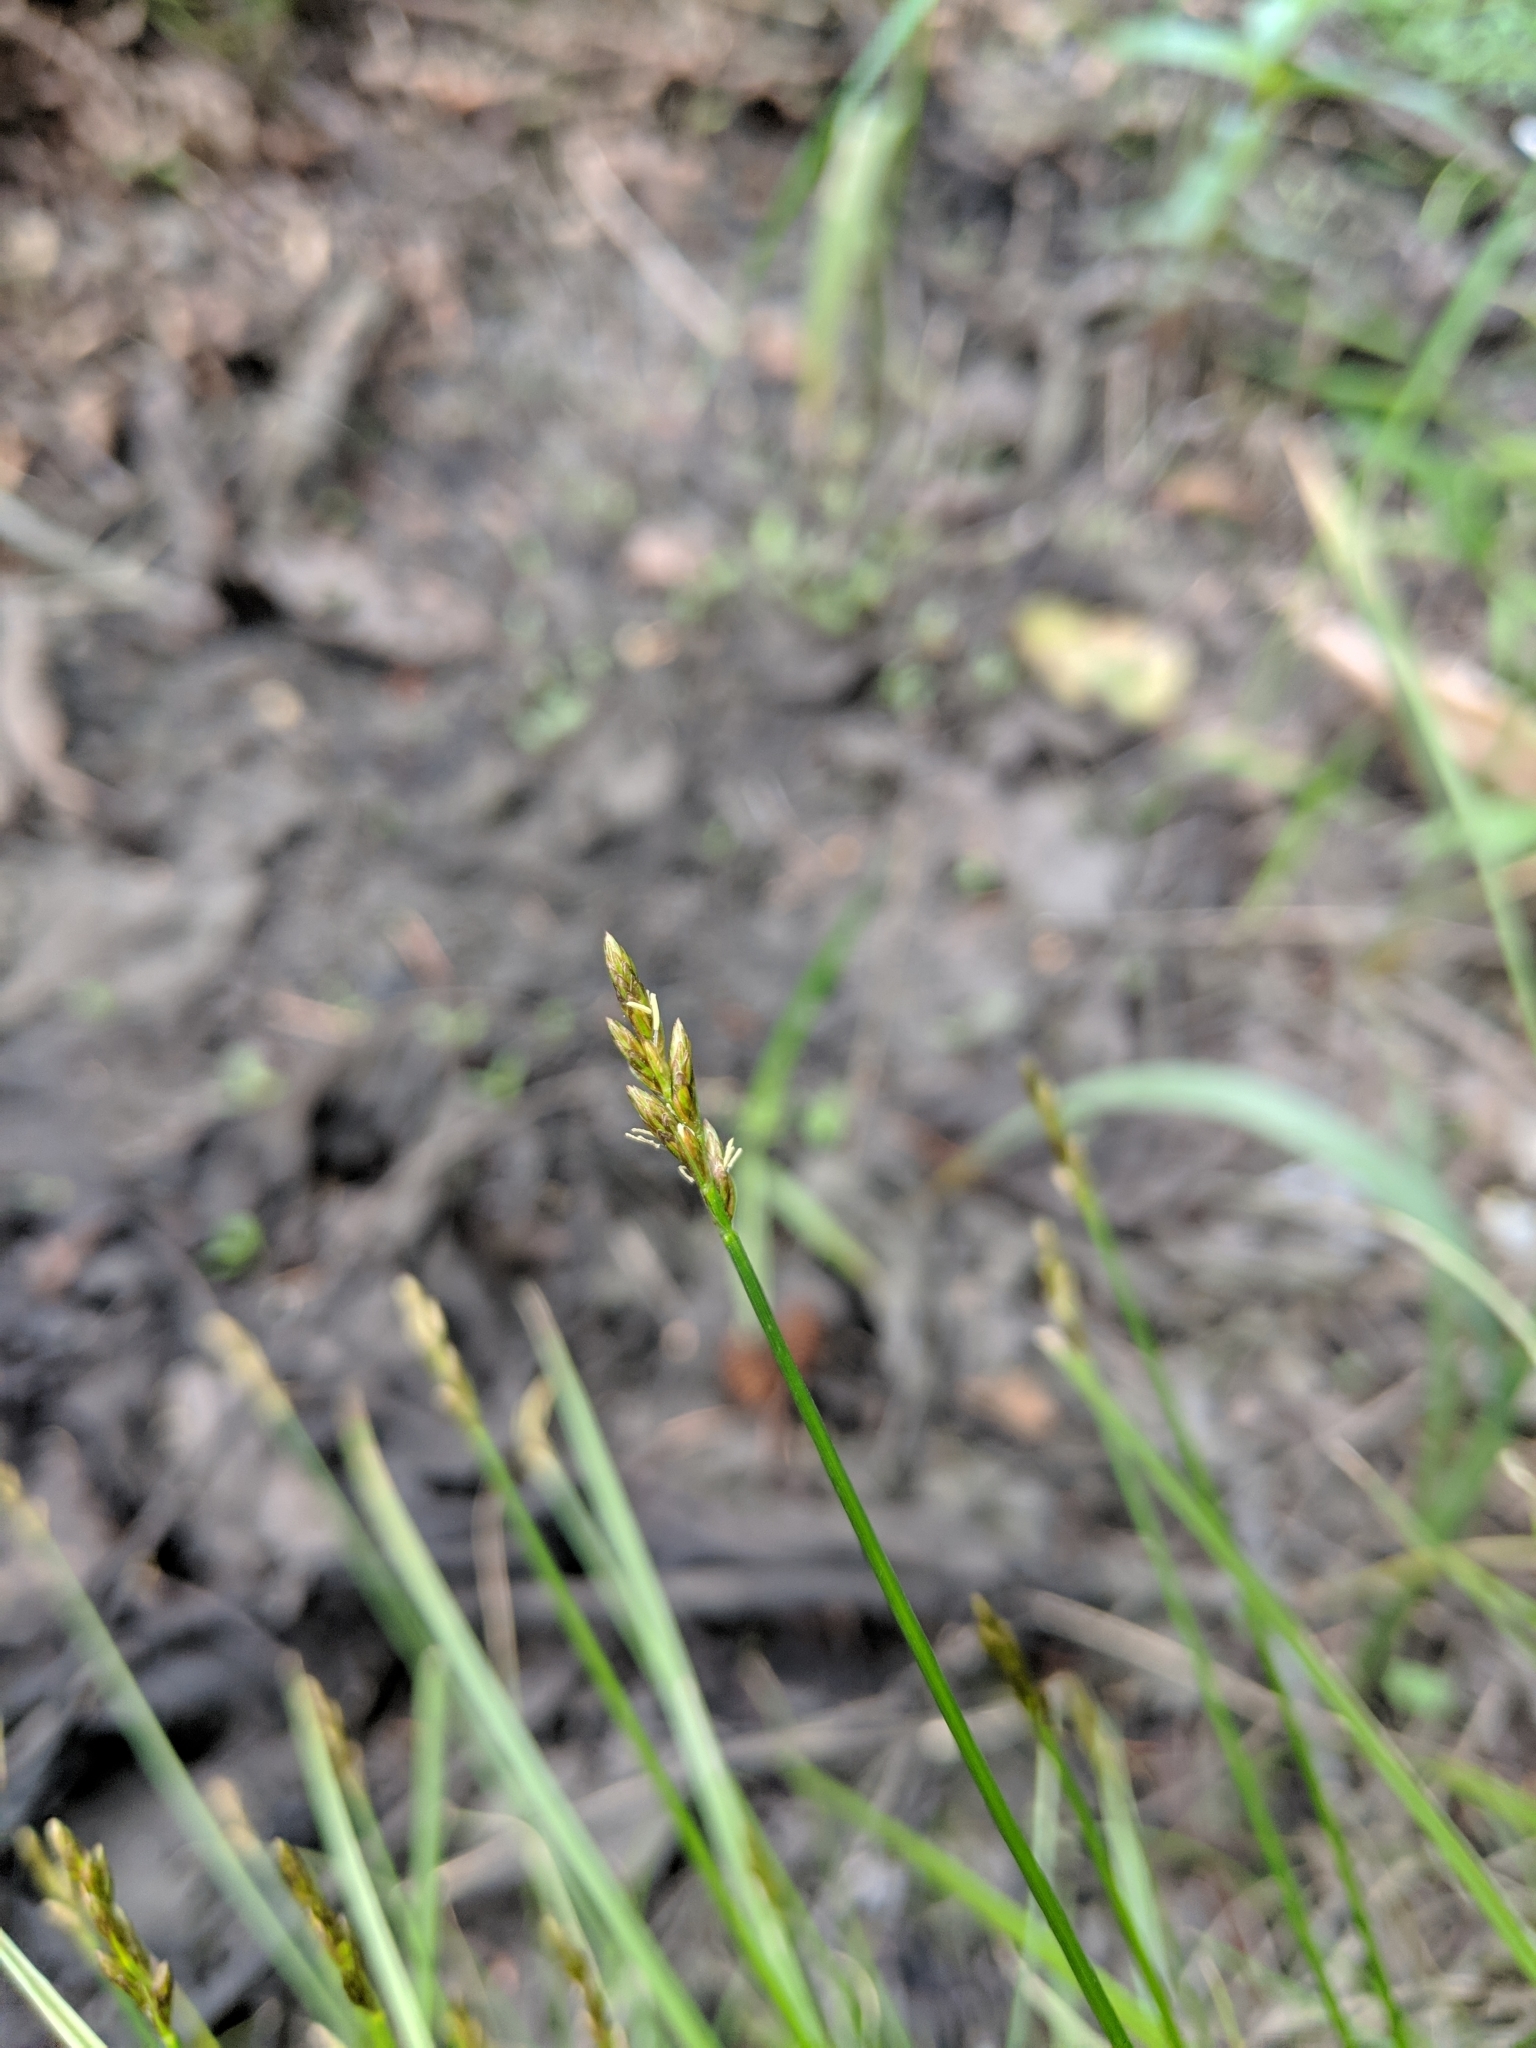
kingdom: Plantae
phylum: Tracheophyta
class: Liliopsida
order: Poales
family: Cyperaceae
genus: Carex
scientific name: Carex leptopoda
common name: Short-scale sedge
